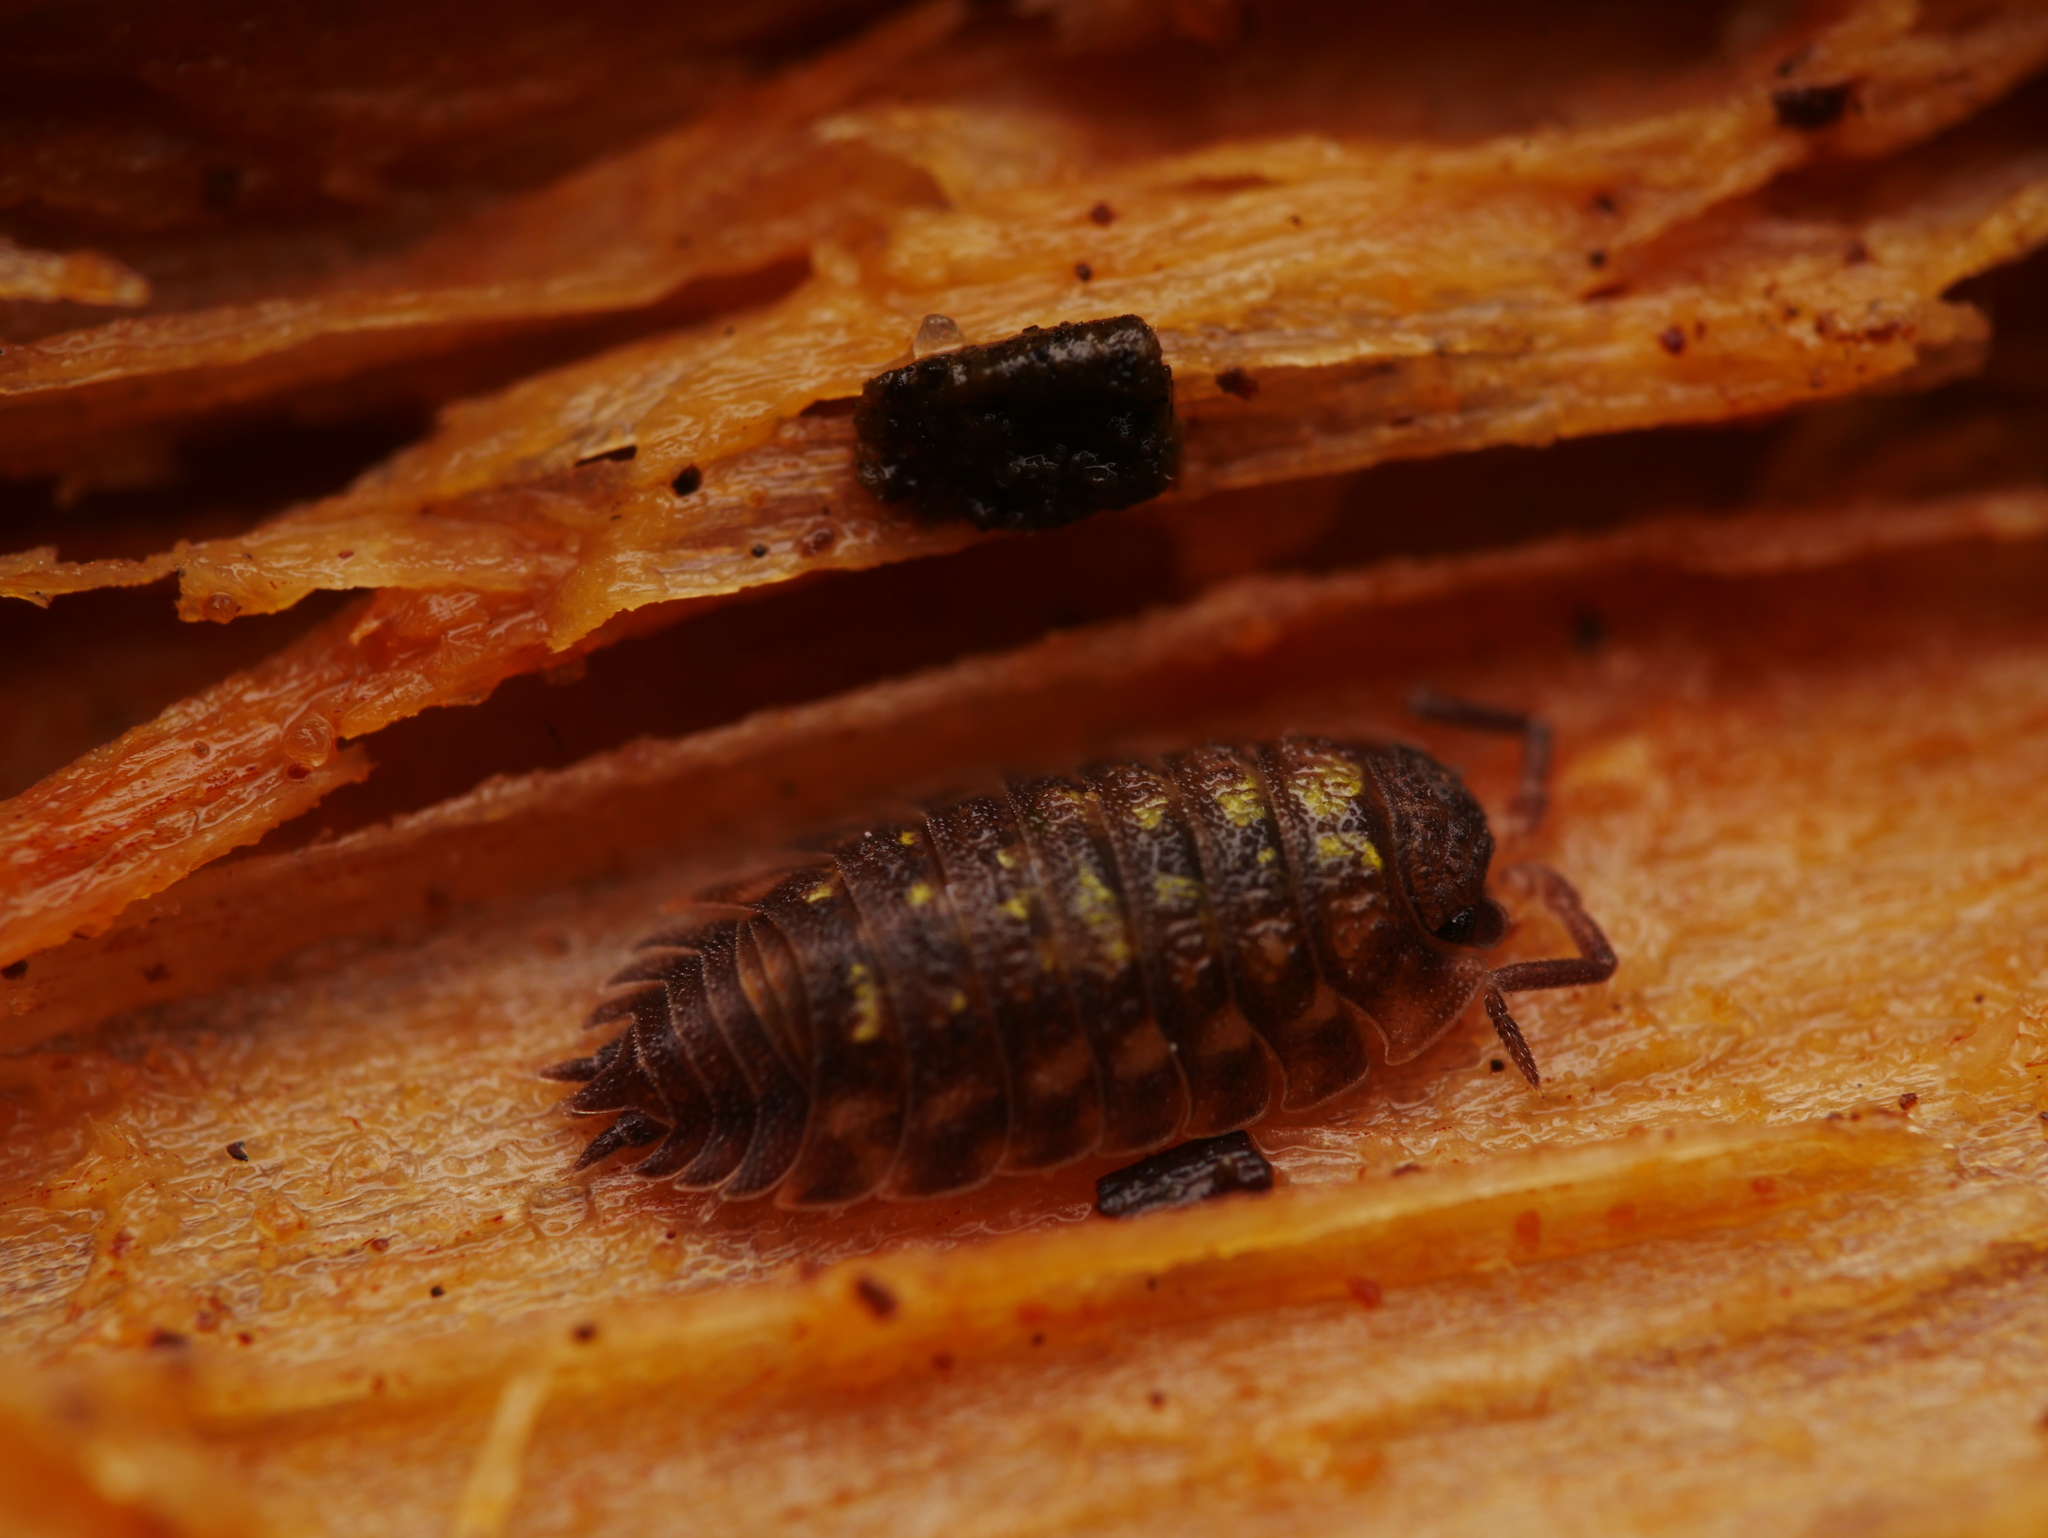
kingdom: Animalia
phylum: Arthropoda
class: Malacostraca
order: Isopoda
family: Oniscidae
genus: Oniscus
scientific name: Oniscus asellus
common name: Common shiny woodlouse
